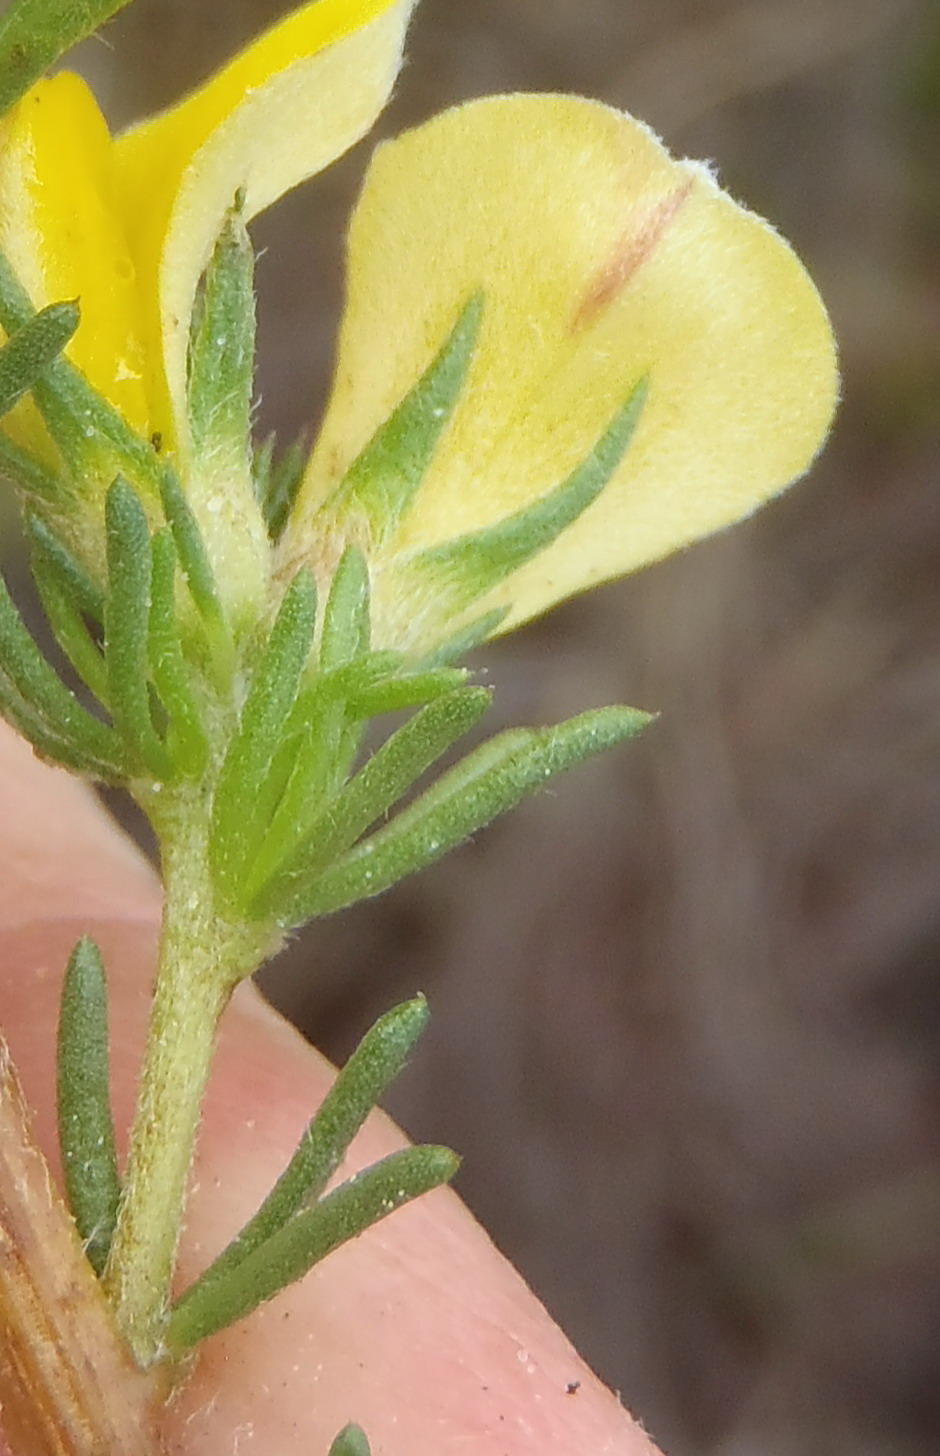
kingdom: Plantae
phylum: Tracheophyta
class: Magnoliopsida
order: Fabales
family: Fabaceae
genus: Aspalathus
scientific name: Aspalathus opaca
